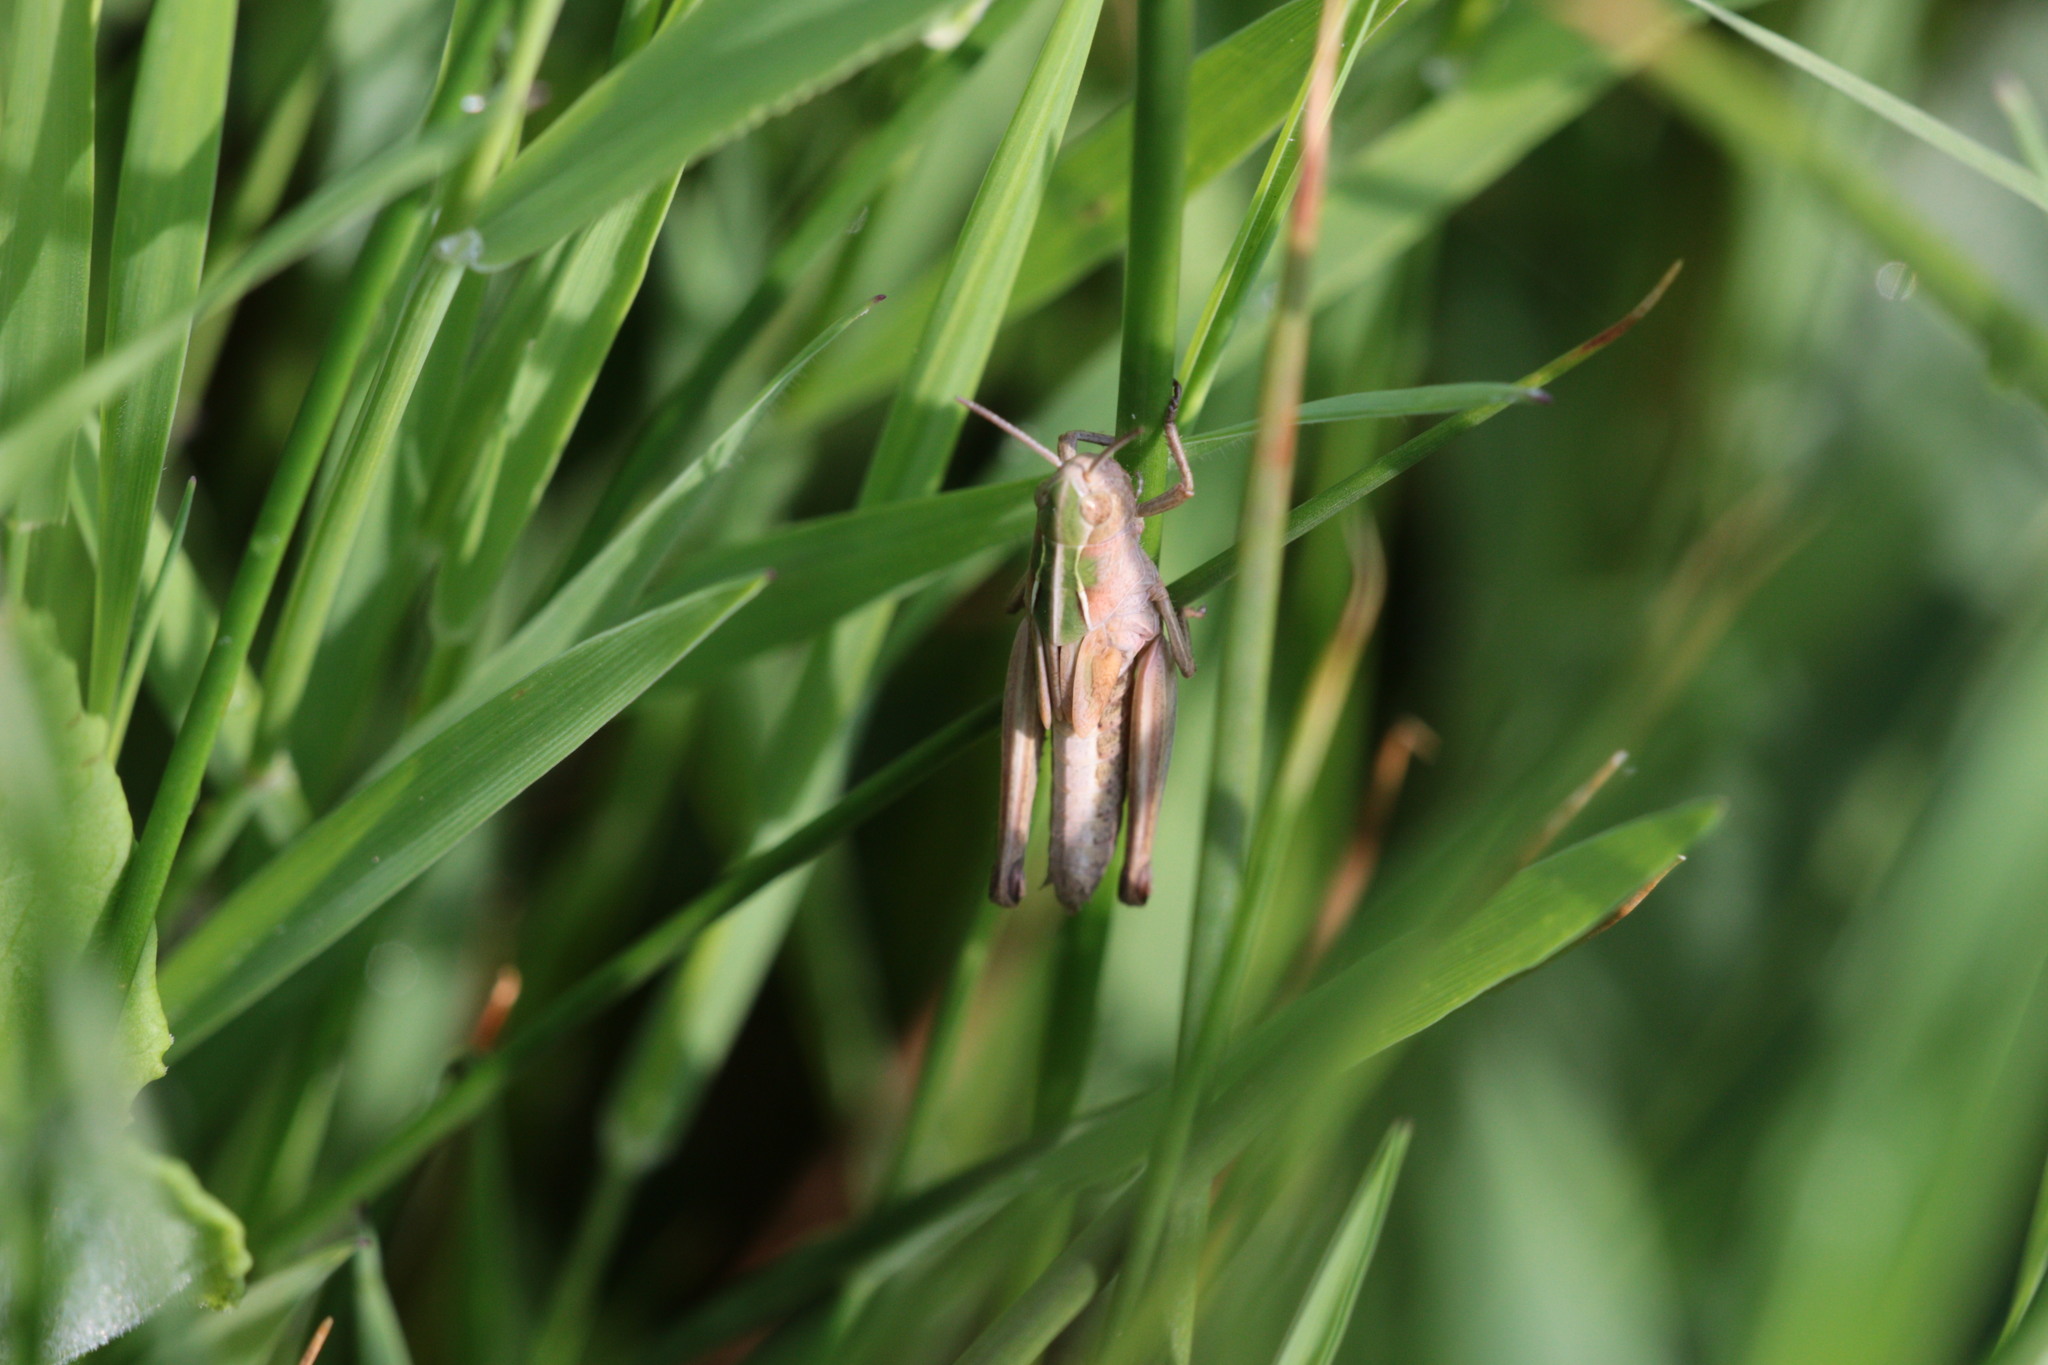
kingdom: Animalia
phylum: Arthropoda
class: Insecta
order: Orthoptera
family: Acrididae
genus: Omocestus
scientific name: Omocestus viridulus
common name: Common green grasshopper
